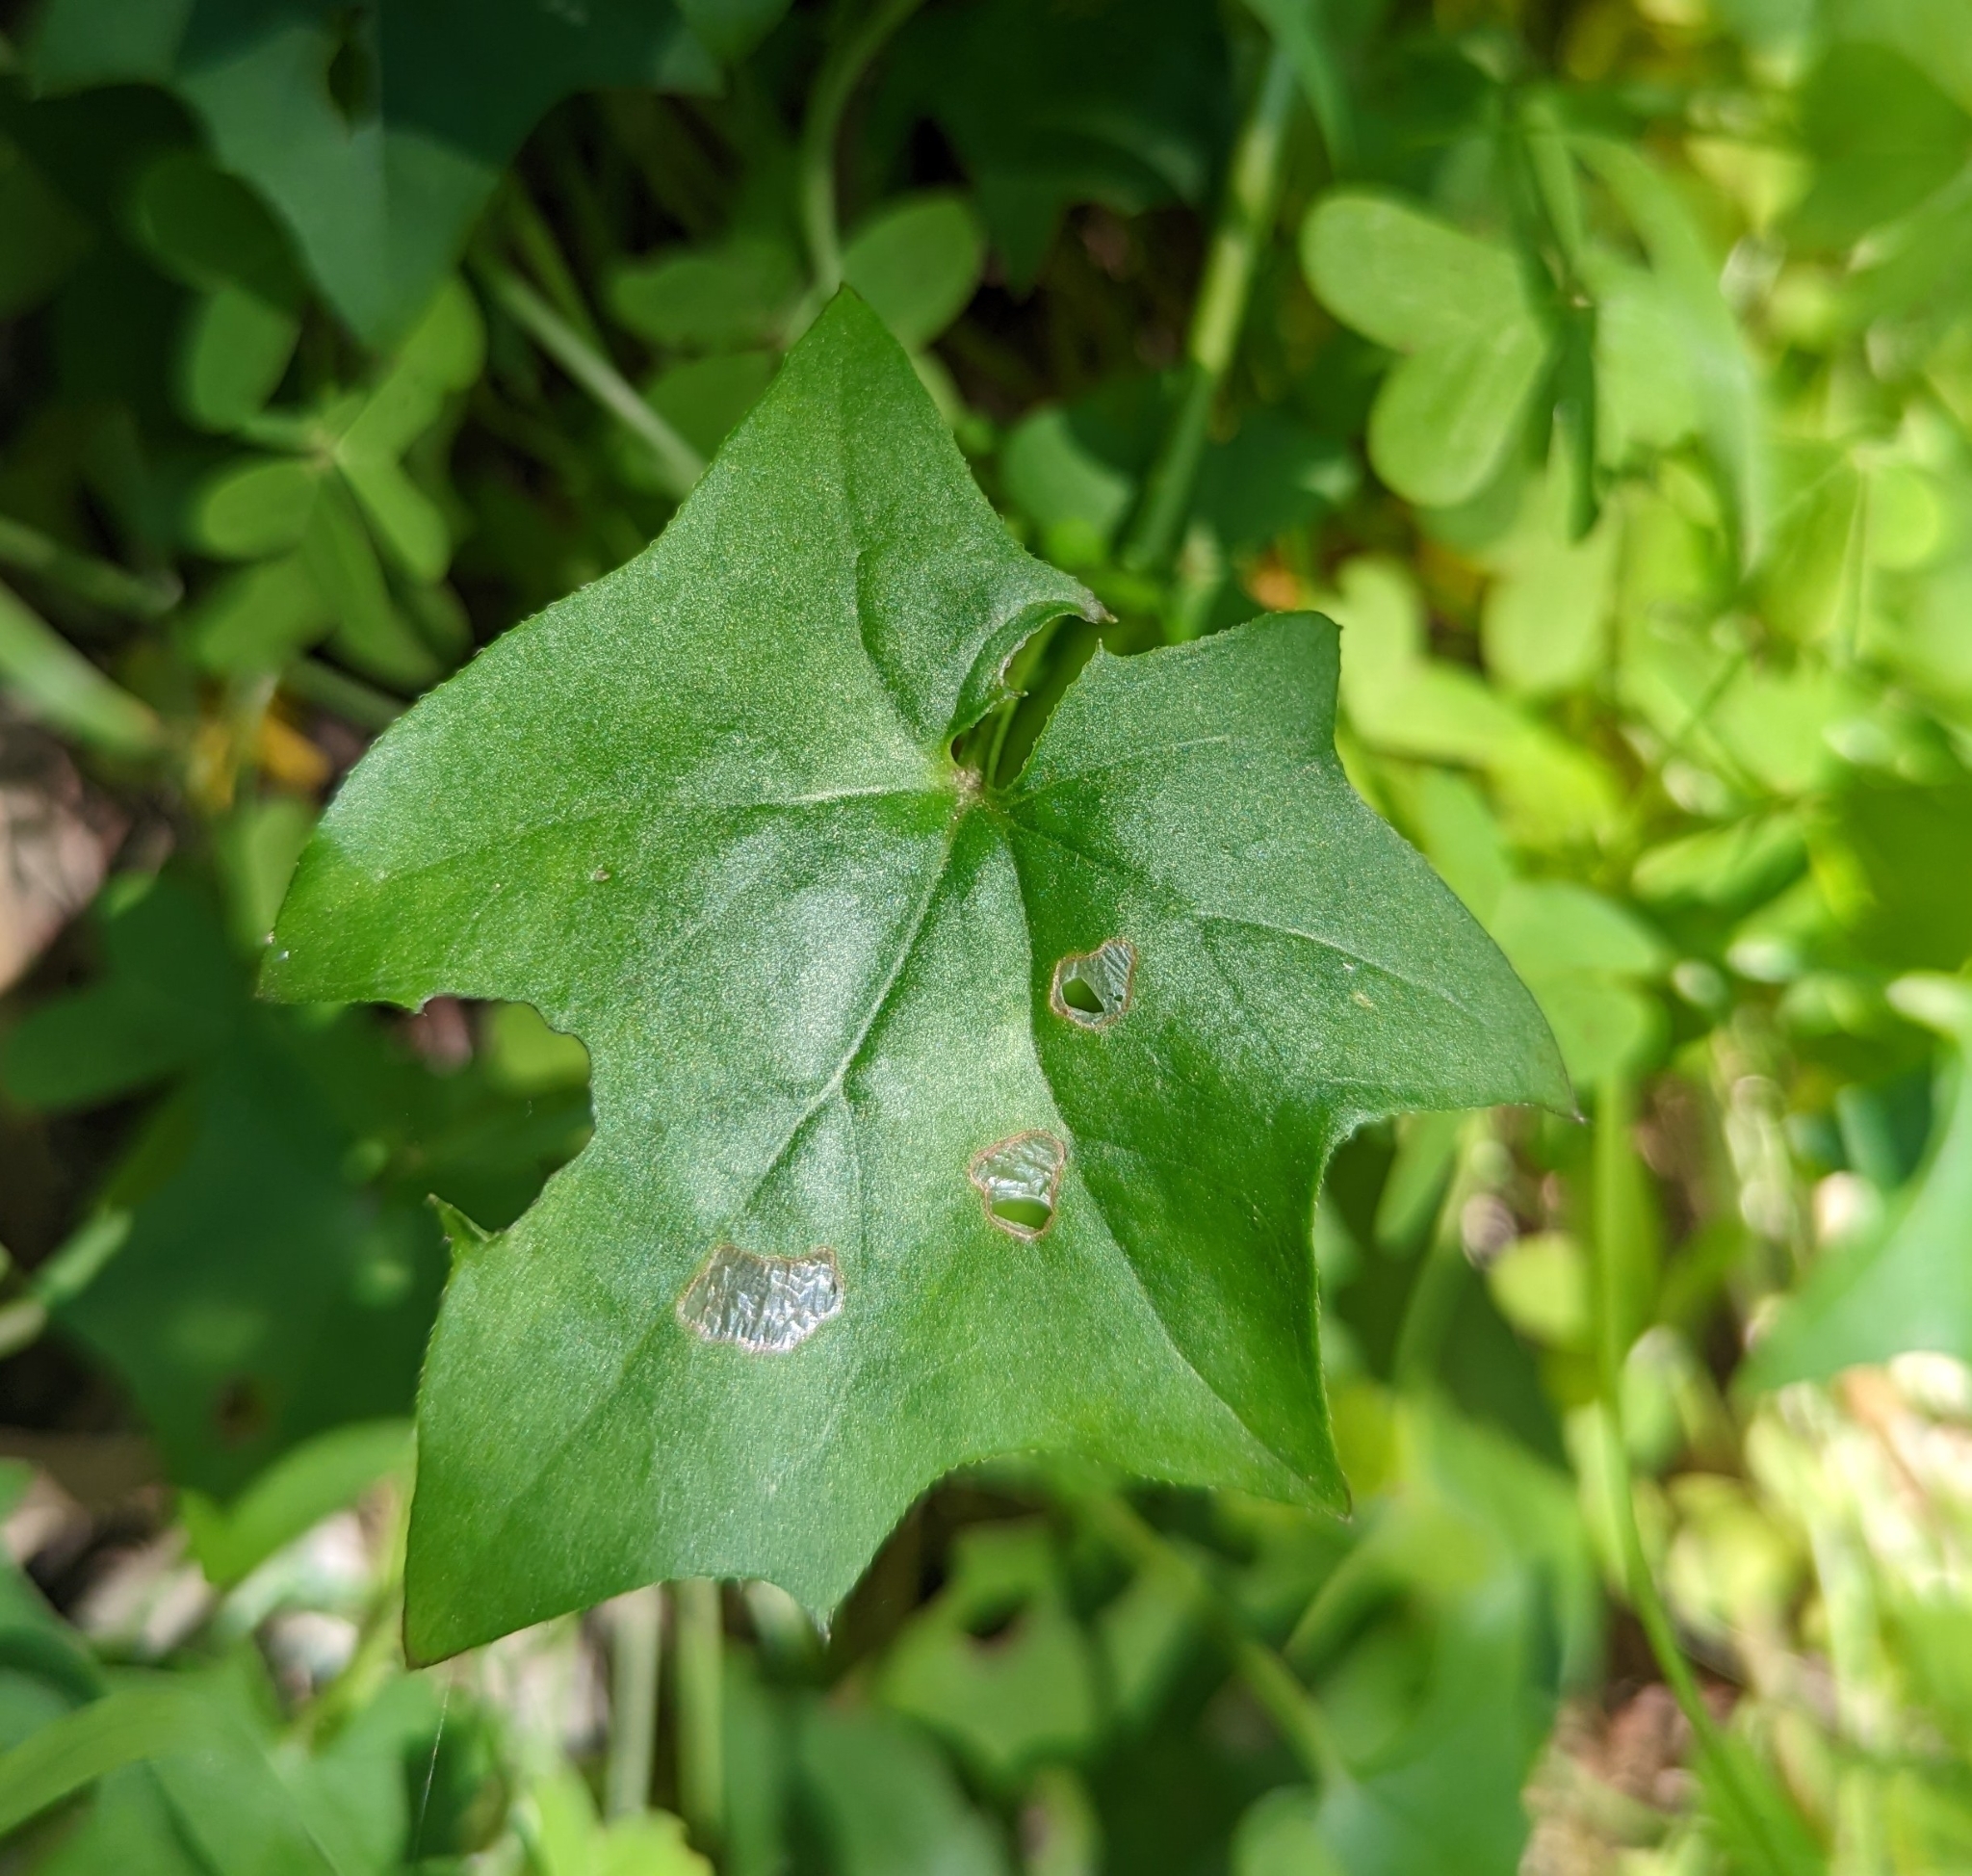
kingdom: Plantae
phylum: Tracheophyta
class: Magnoliopsida
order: Asterales
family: Asteraceae
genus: Delairea
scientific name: Delairea odorata
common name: Cape-ivy
